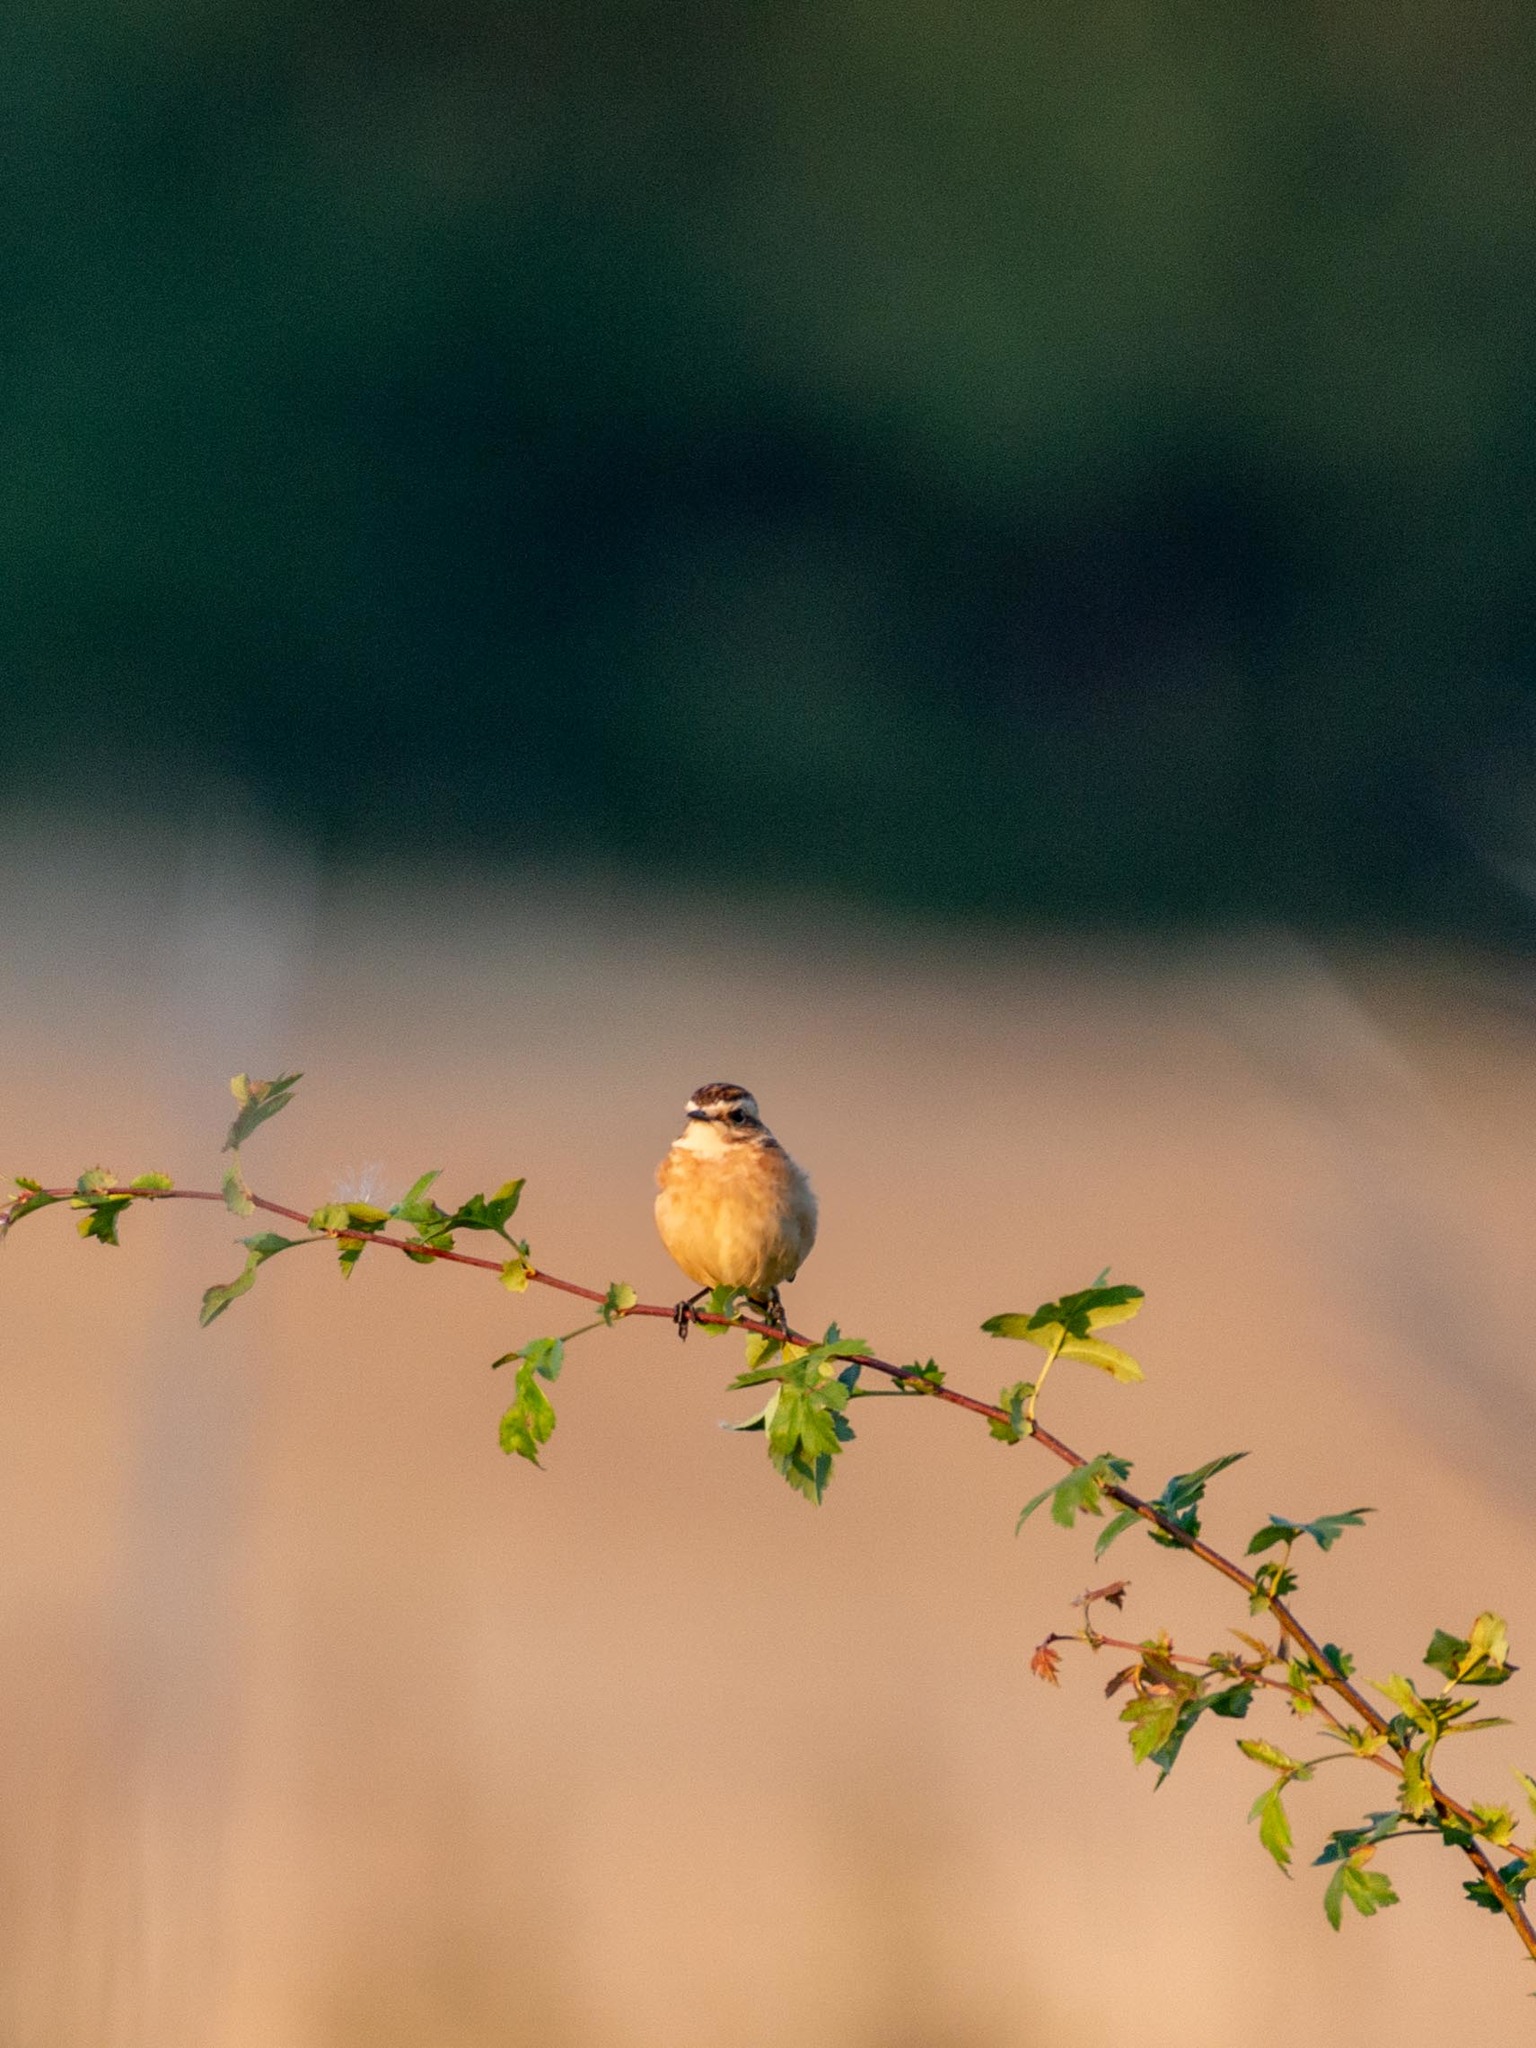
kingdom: Animalia
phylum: Chordata
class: Aves
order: Passeriformes
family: Muscicapidae
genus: Saxicola
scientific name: Saxicola rubetra
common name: Whinchat
